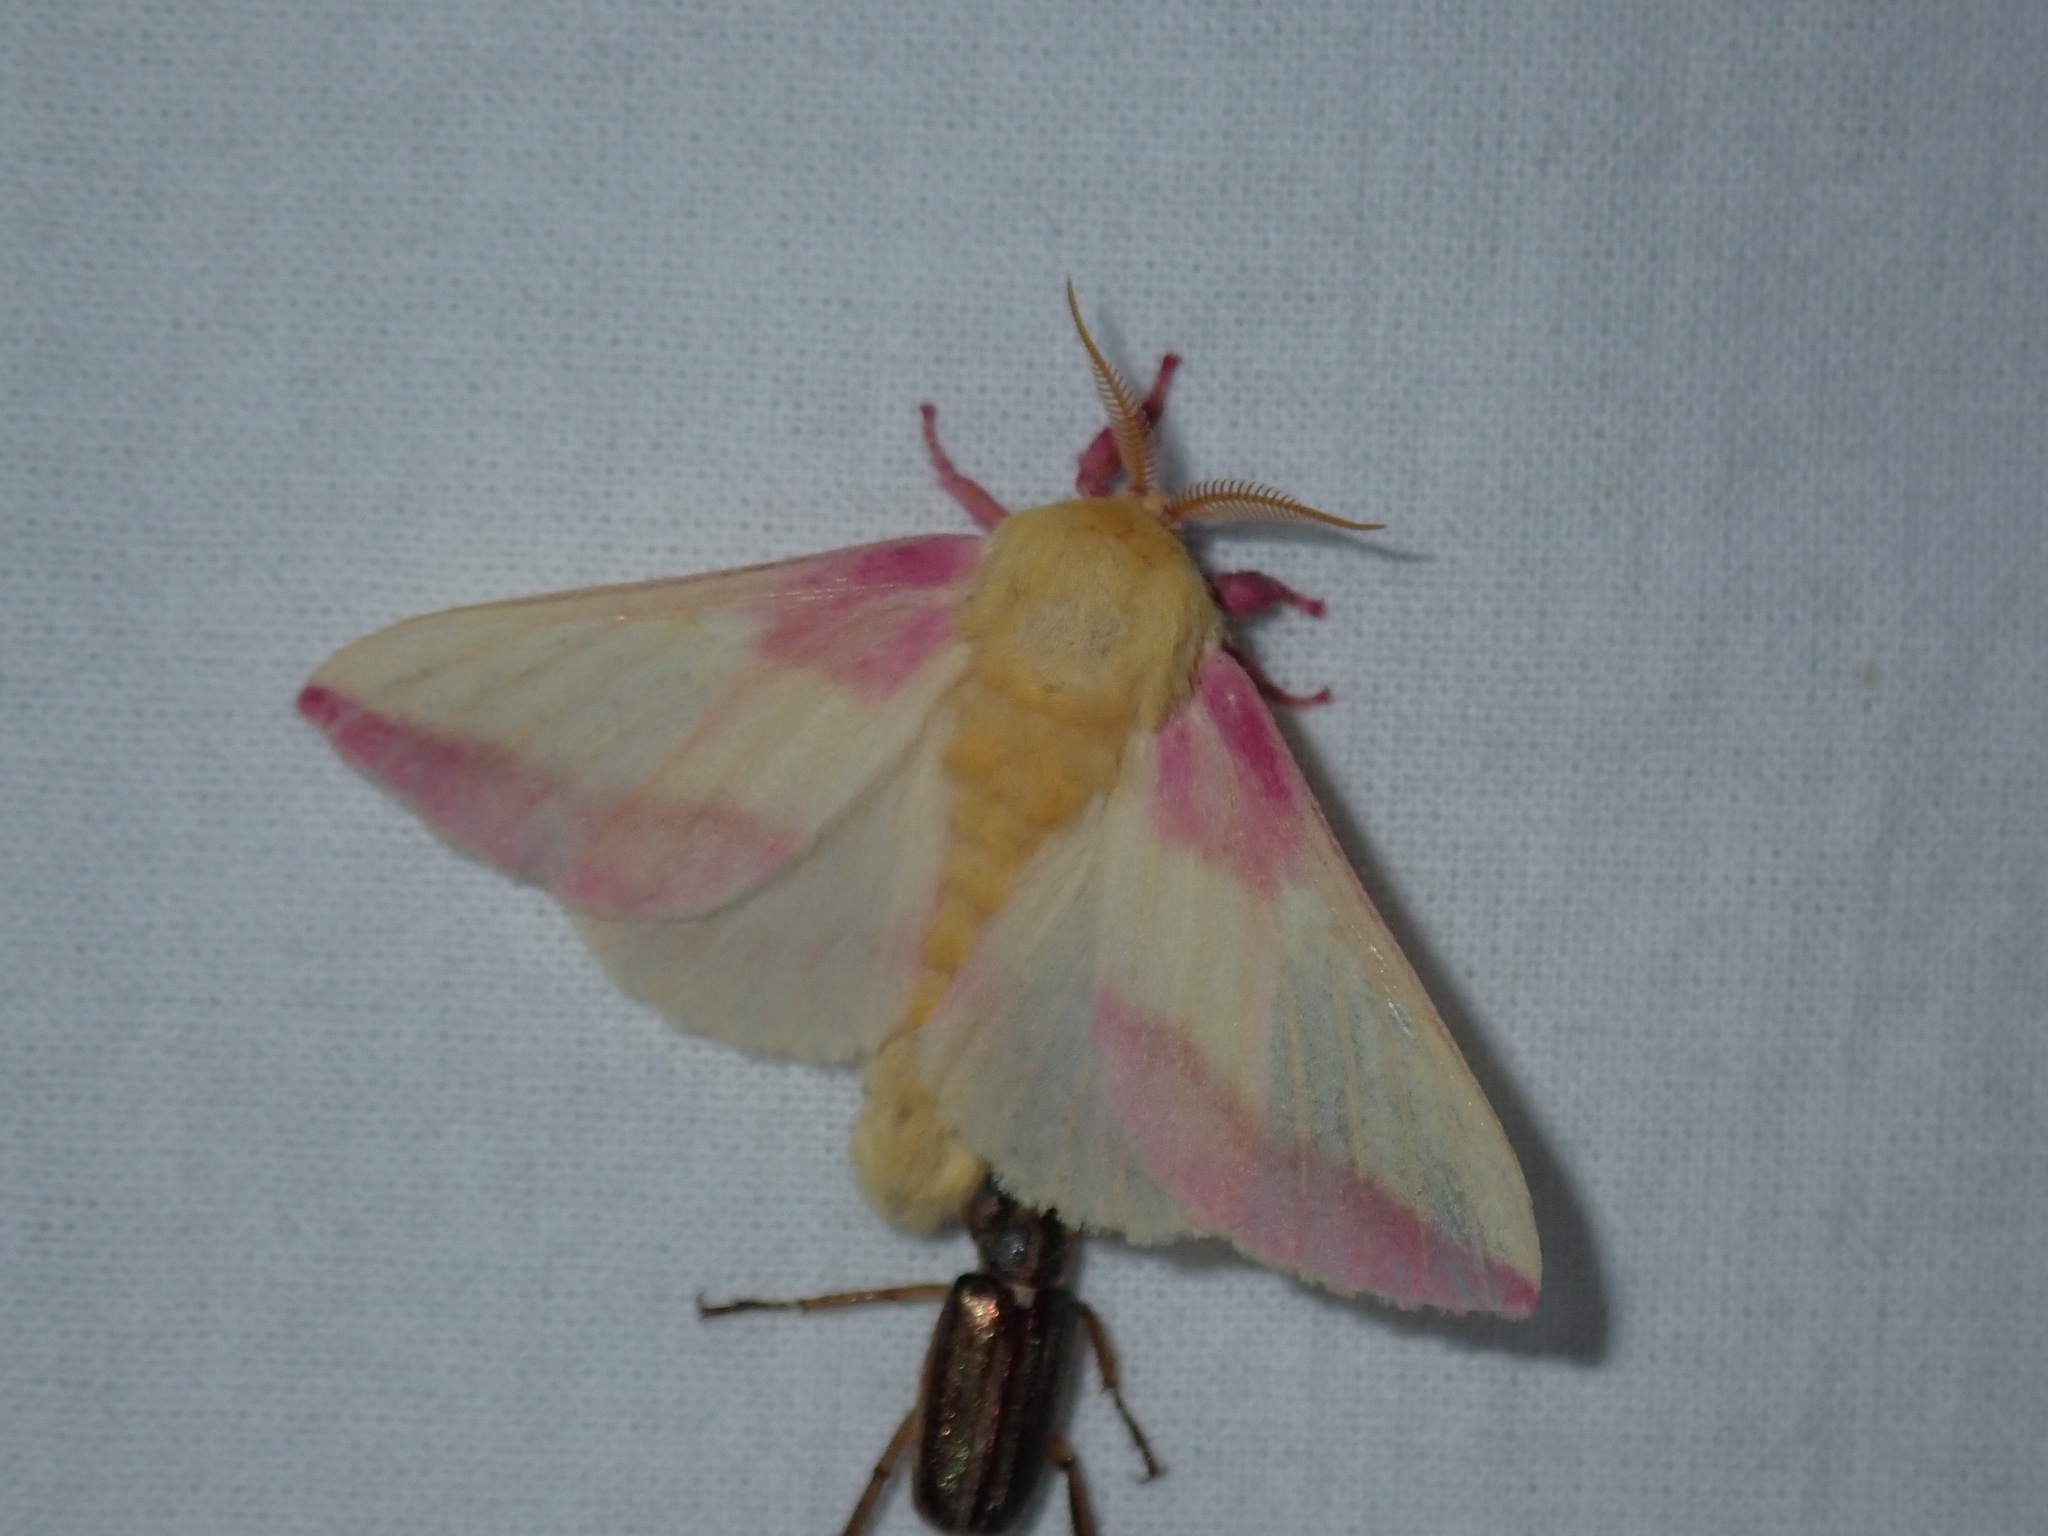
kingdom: Animalia
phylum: Arthropoda
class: Insecta
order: Lepidoptera
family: Saturniidae
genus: Dryocampa
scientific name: Dryocampa rubicunda
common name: Rosy maple moth
